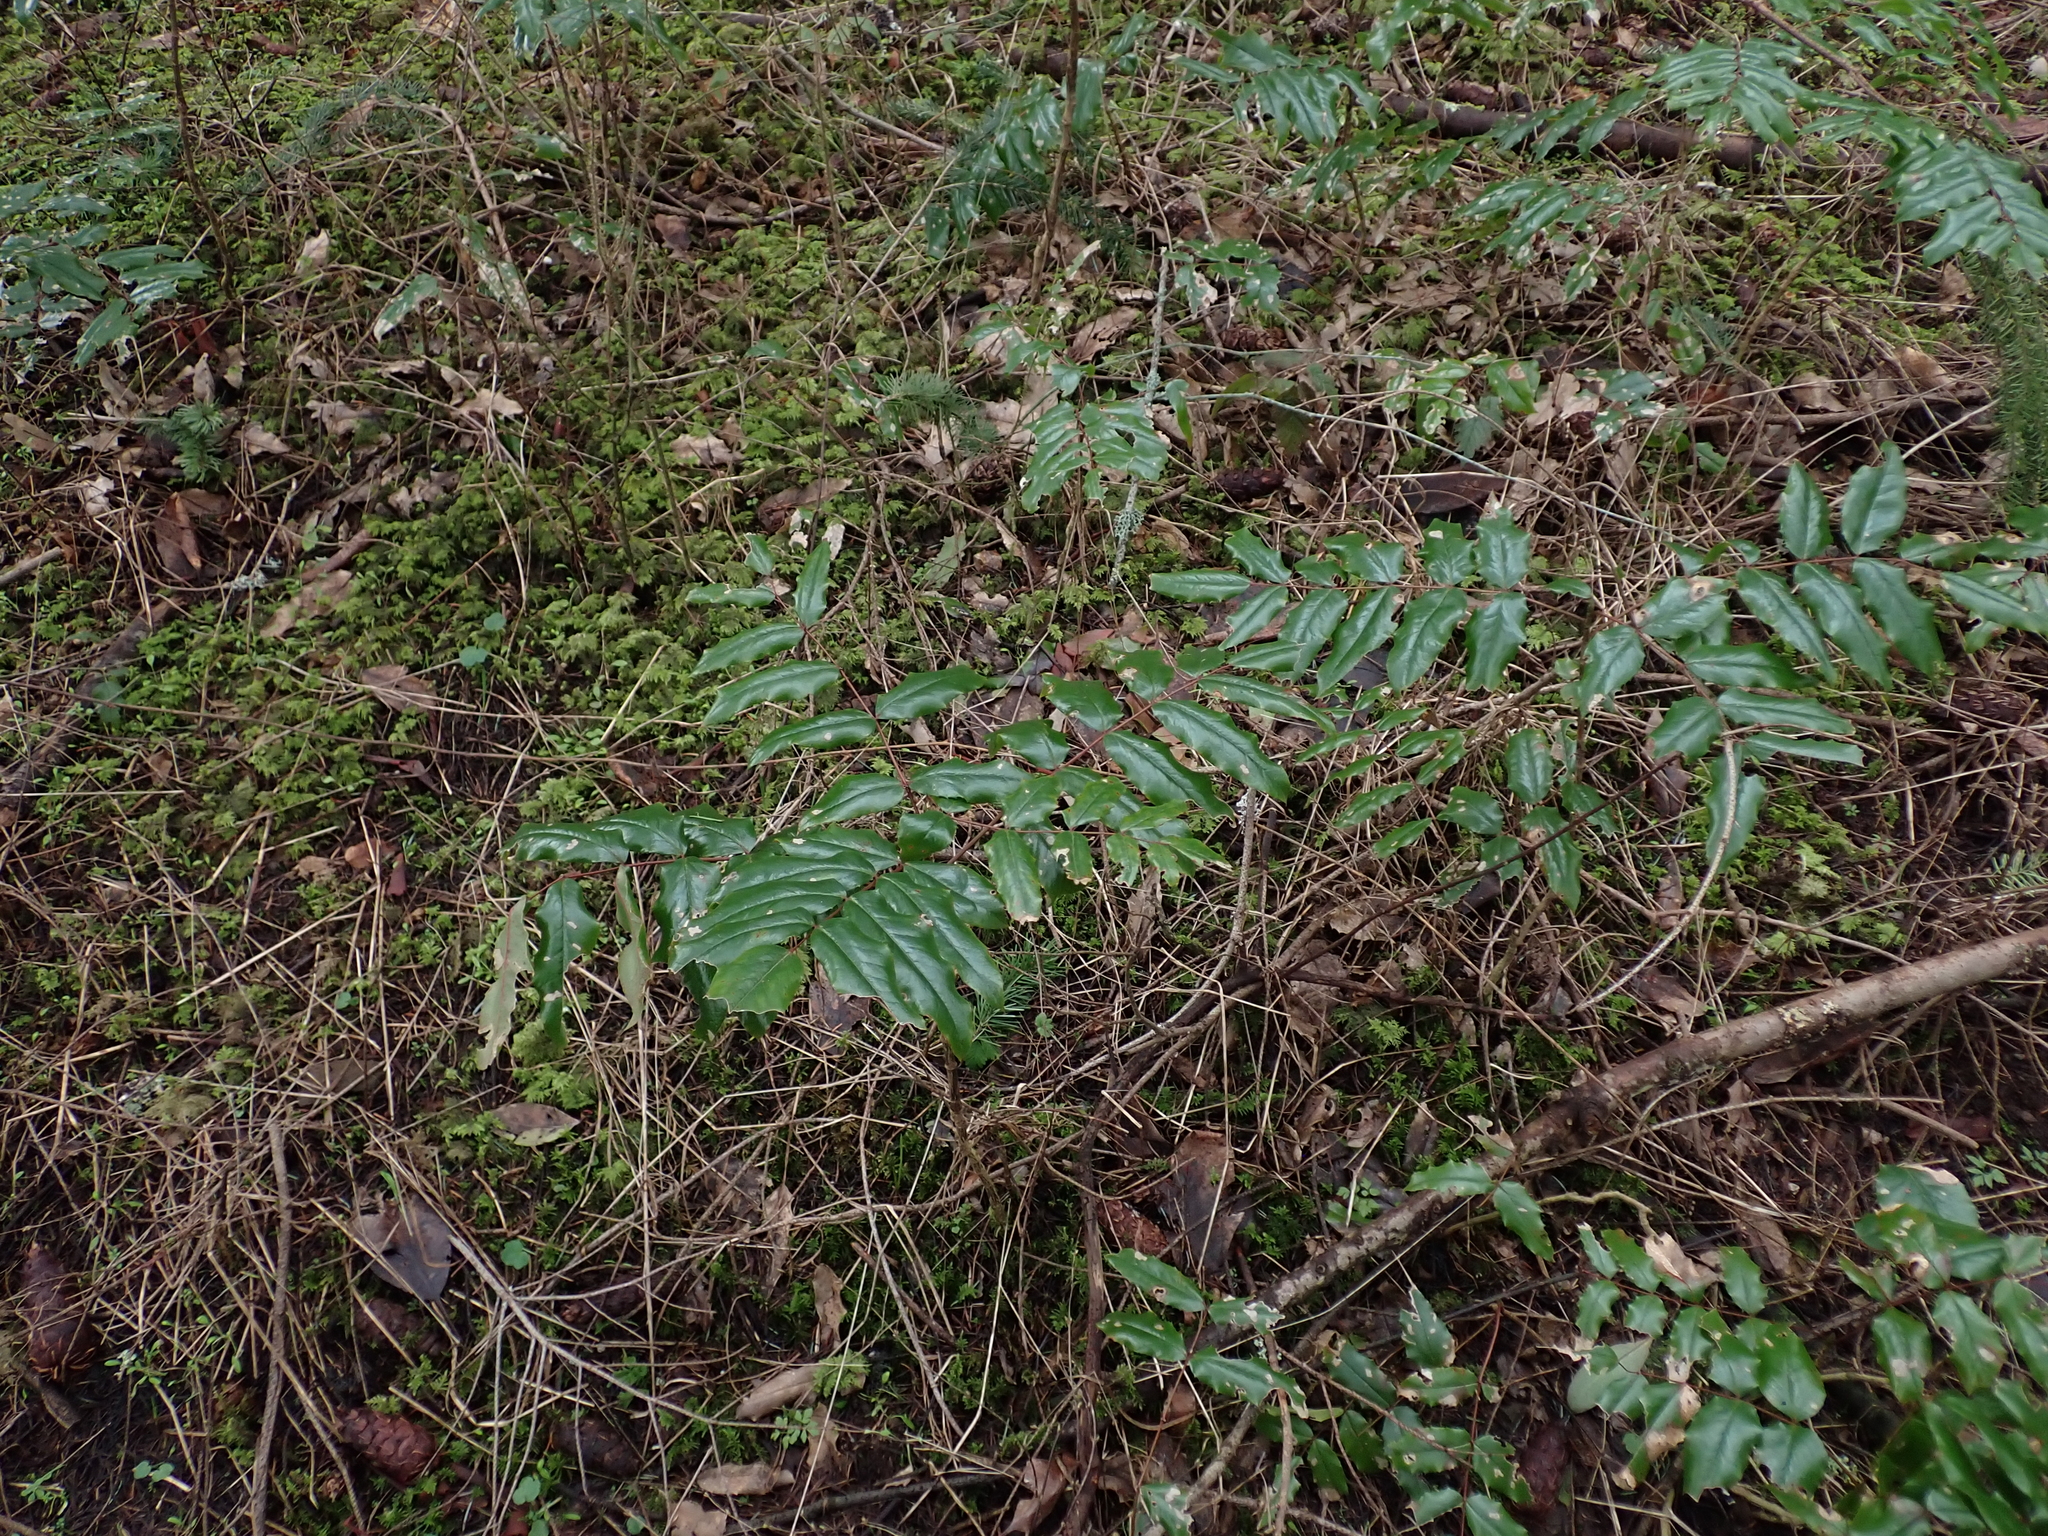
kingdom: Plantae
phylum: Tracheophyta
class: Magnoliopsida
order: Ranunculales
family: Berberidaceae
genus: Mahonia
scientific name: Mahonia aquifolium
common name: Oregon-grape
